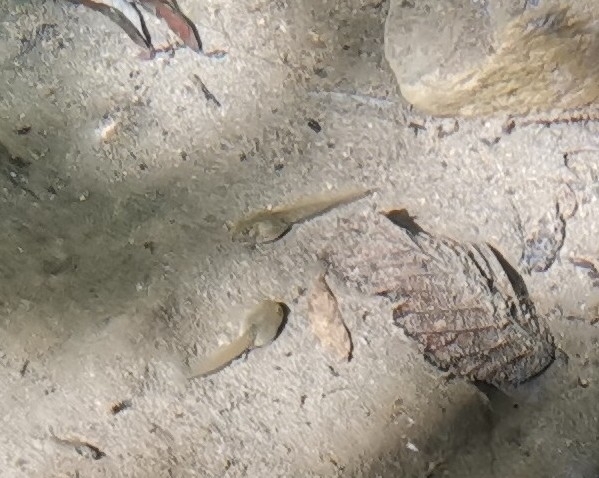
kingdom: Animalia
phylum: Chordata
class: Amphibia
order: Anura
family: Ranidae
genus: Rana
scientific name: Rana italica
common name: Italian stream frog
